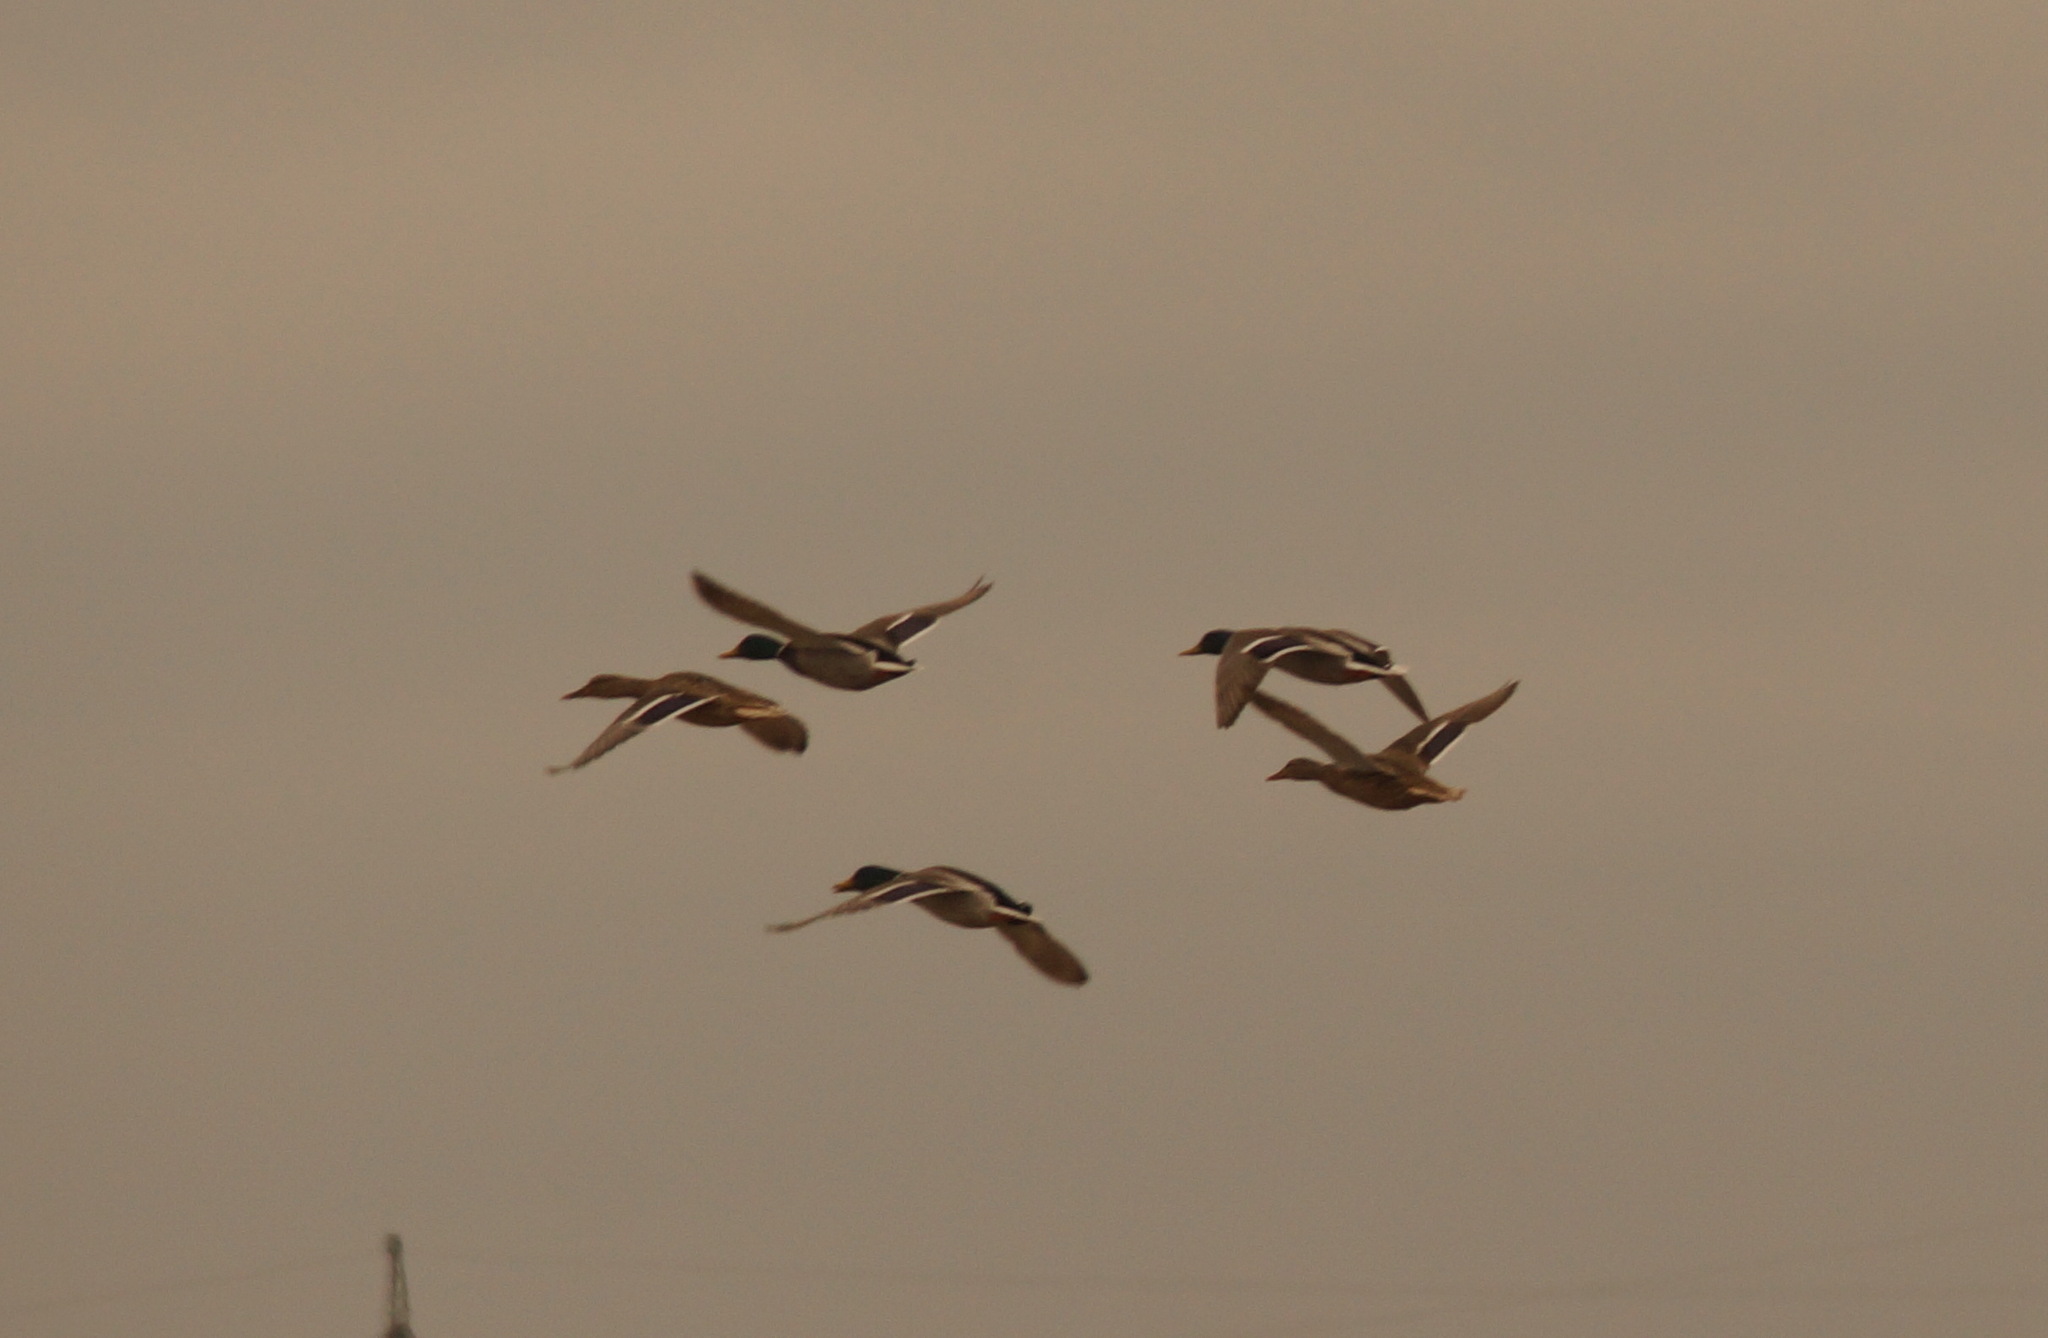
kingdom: Animalia
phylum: Chordata
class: Aves
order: Anseriformes
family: Anatidae
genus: Anas
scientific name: Anas platyrhynchos
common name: Mallard
